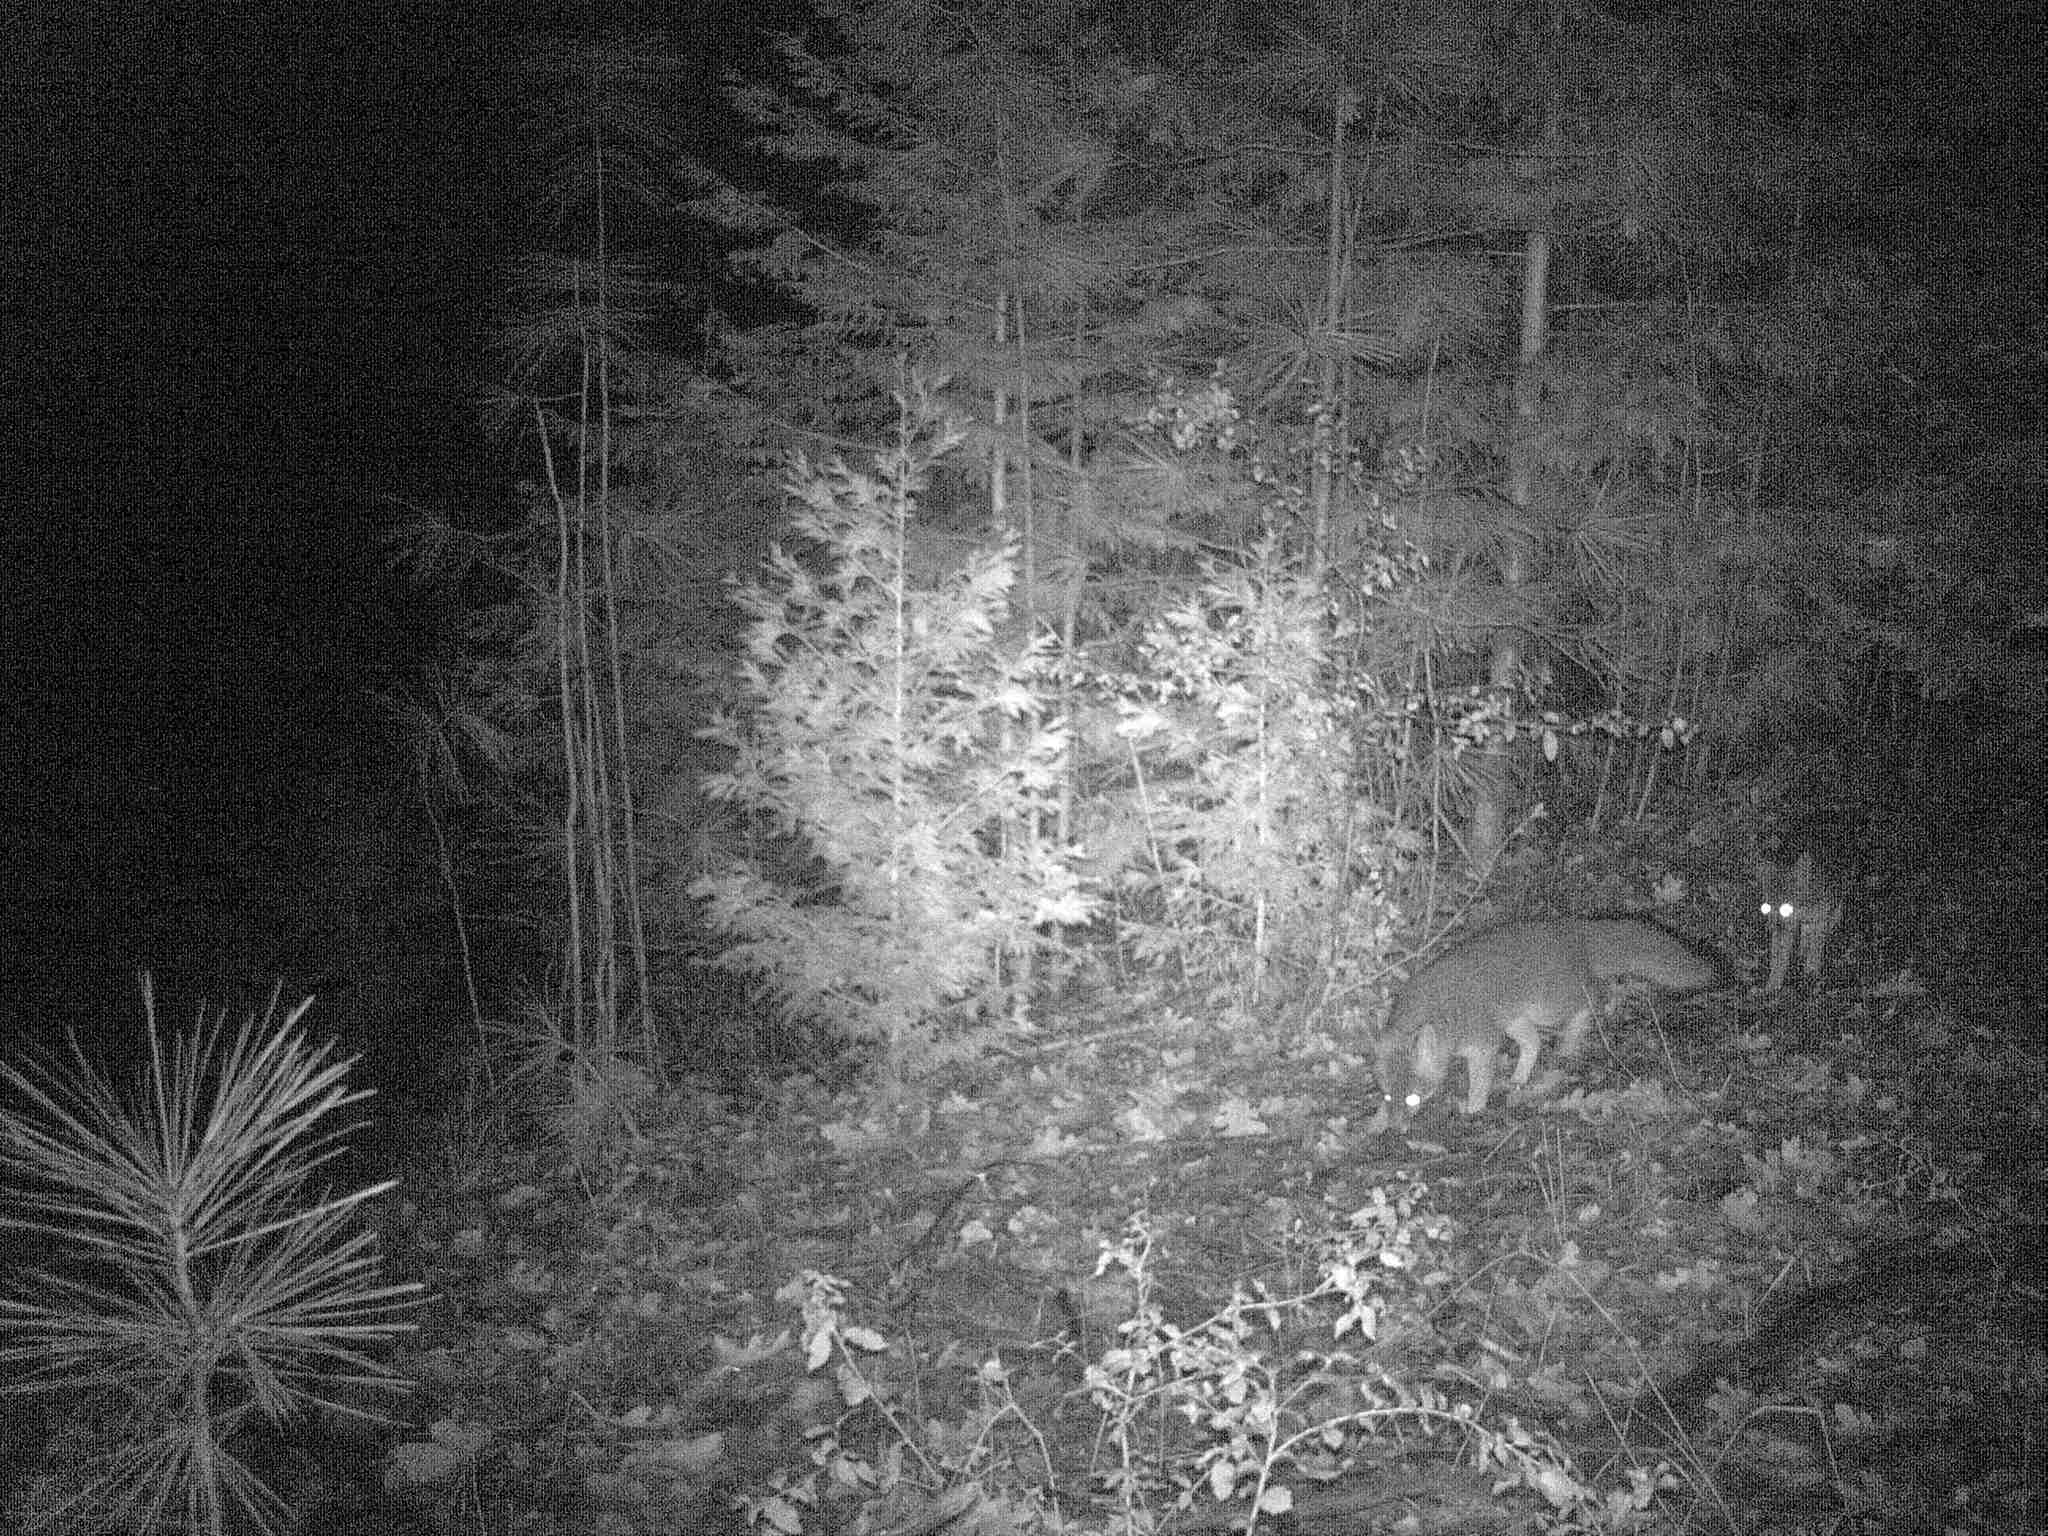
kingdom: Animalia
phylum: Chordata
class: Mammalia
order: Carnivora
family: Canidae
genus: Urocyon
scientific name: Urocyon cinereoargenteus
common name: Gray fox
